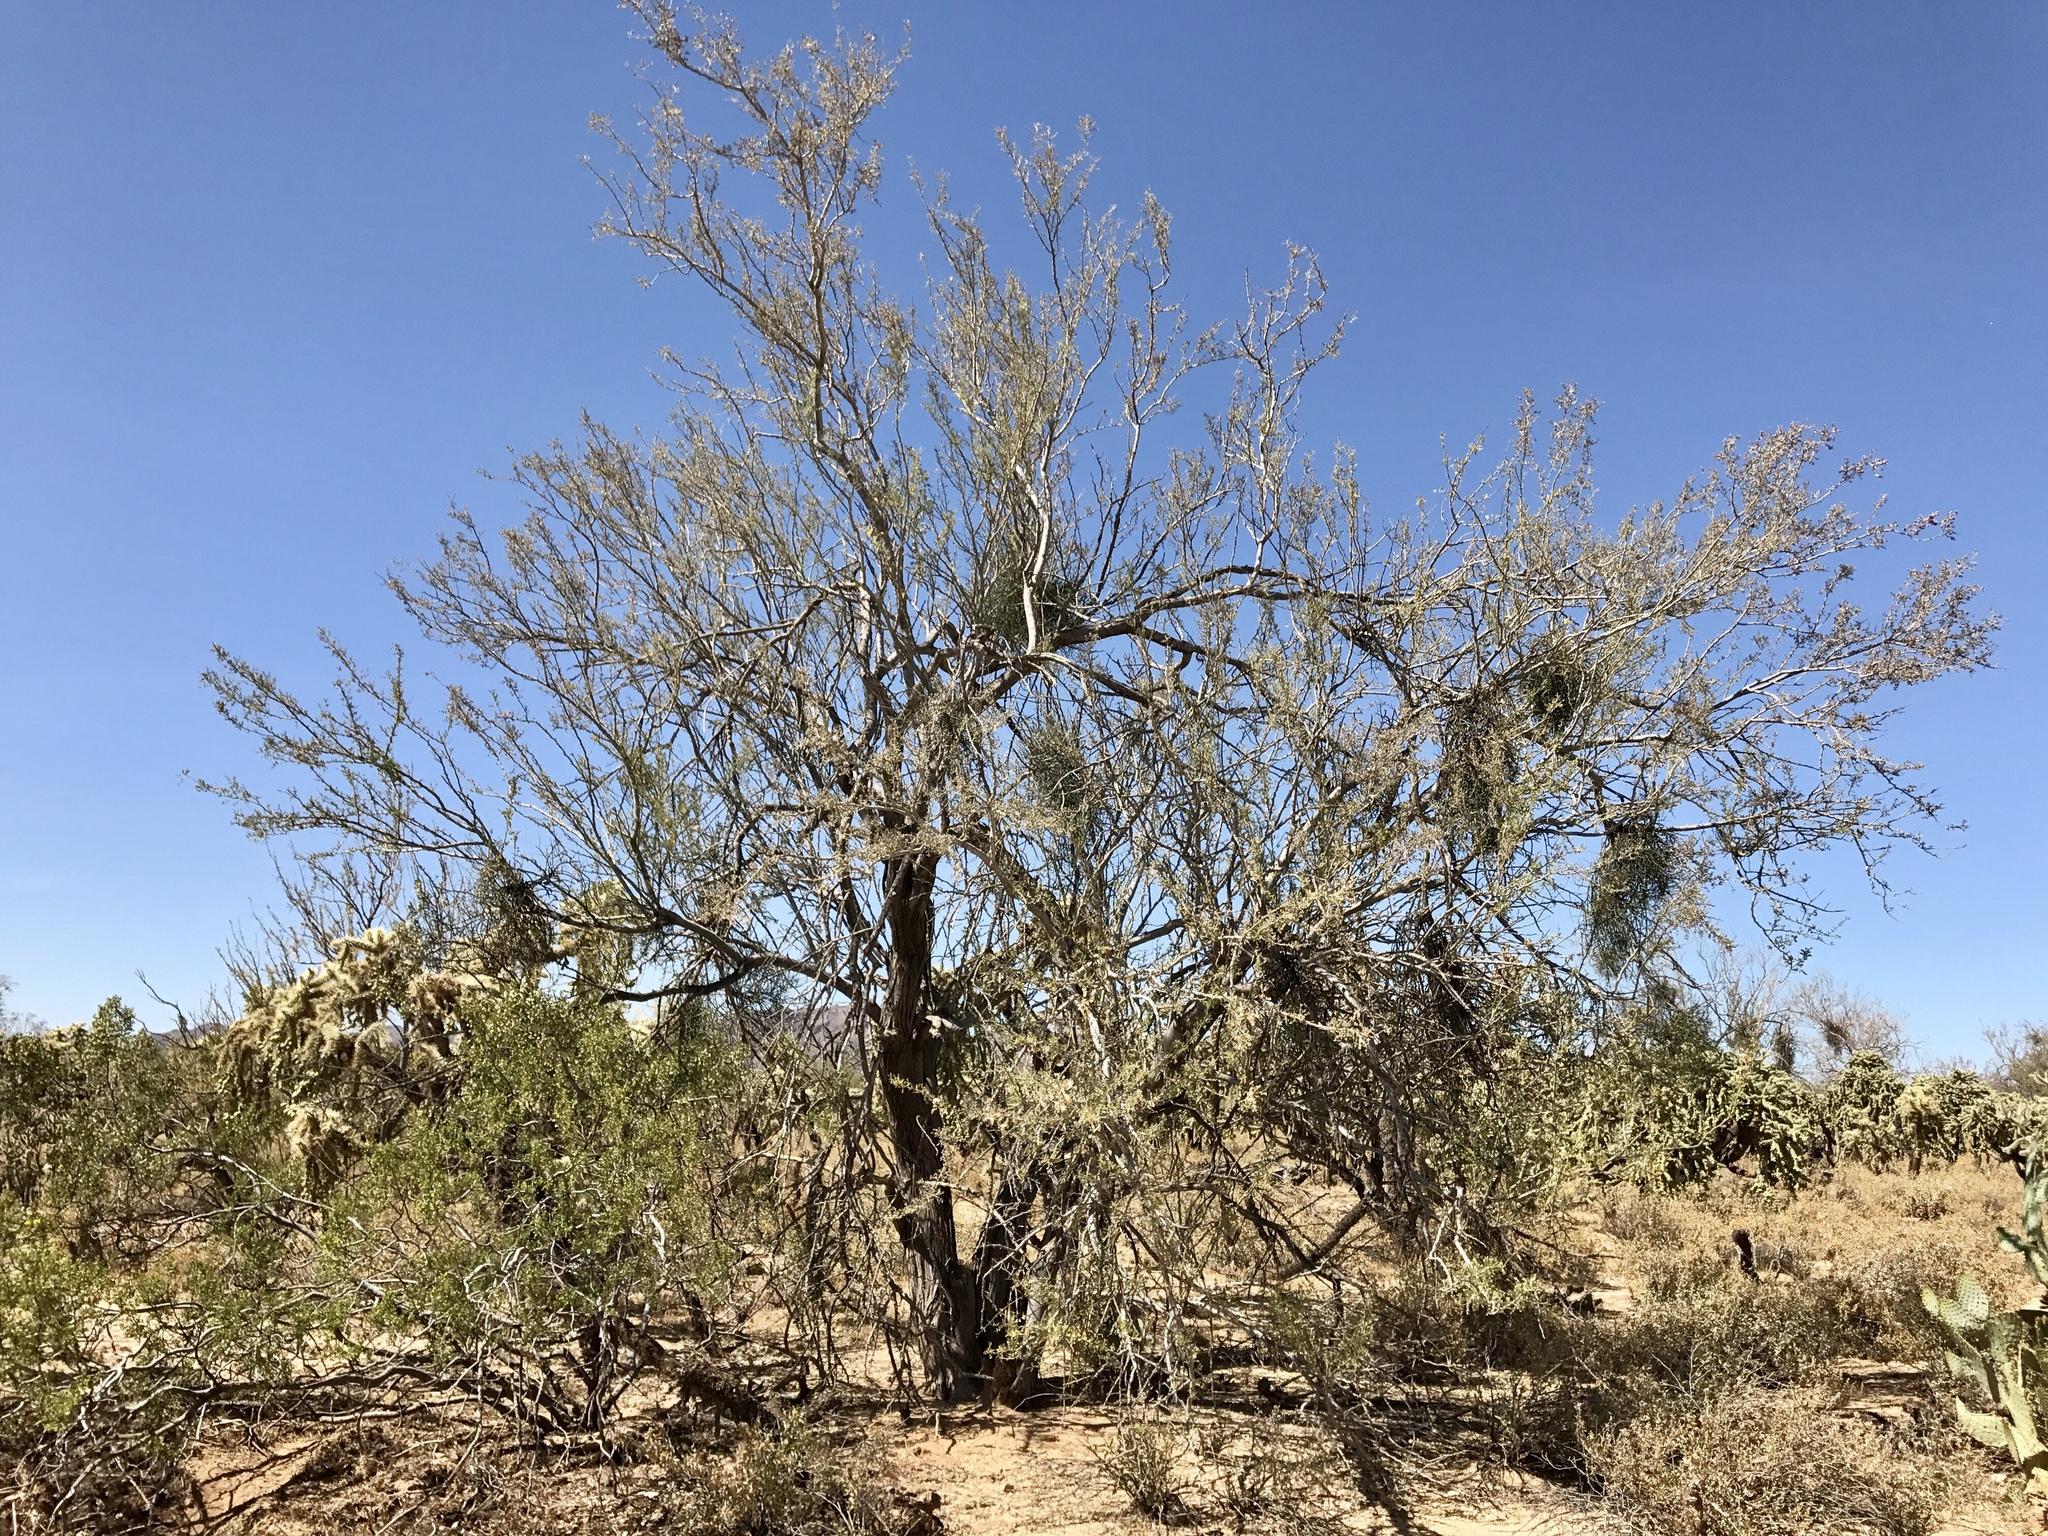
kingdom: Plantae
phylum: Tracheophyta
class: Magnoliopsida
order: Fabales
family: Fabaceae
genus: Olneya
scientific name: Olneya tesota
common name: Desert ironwood
